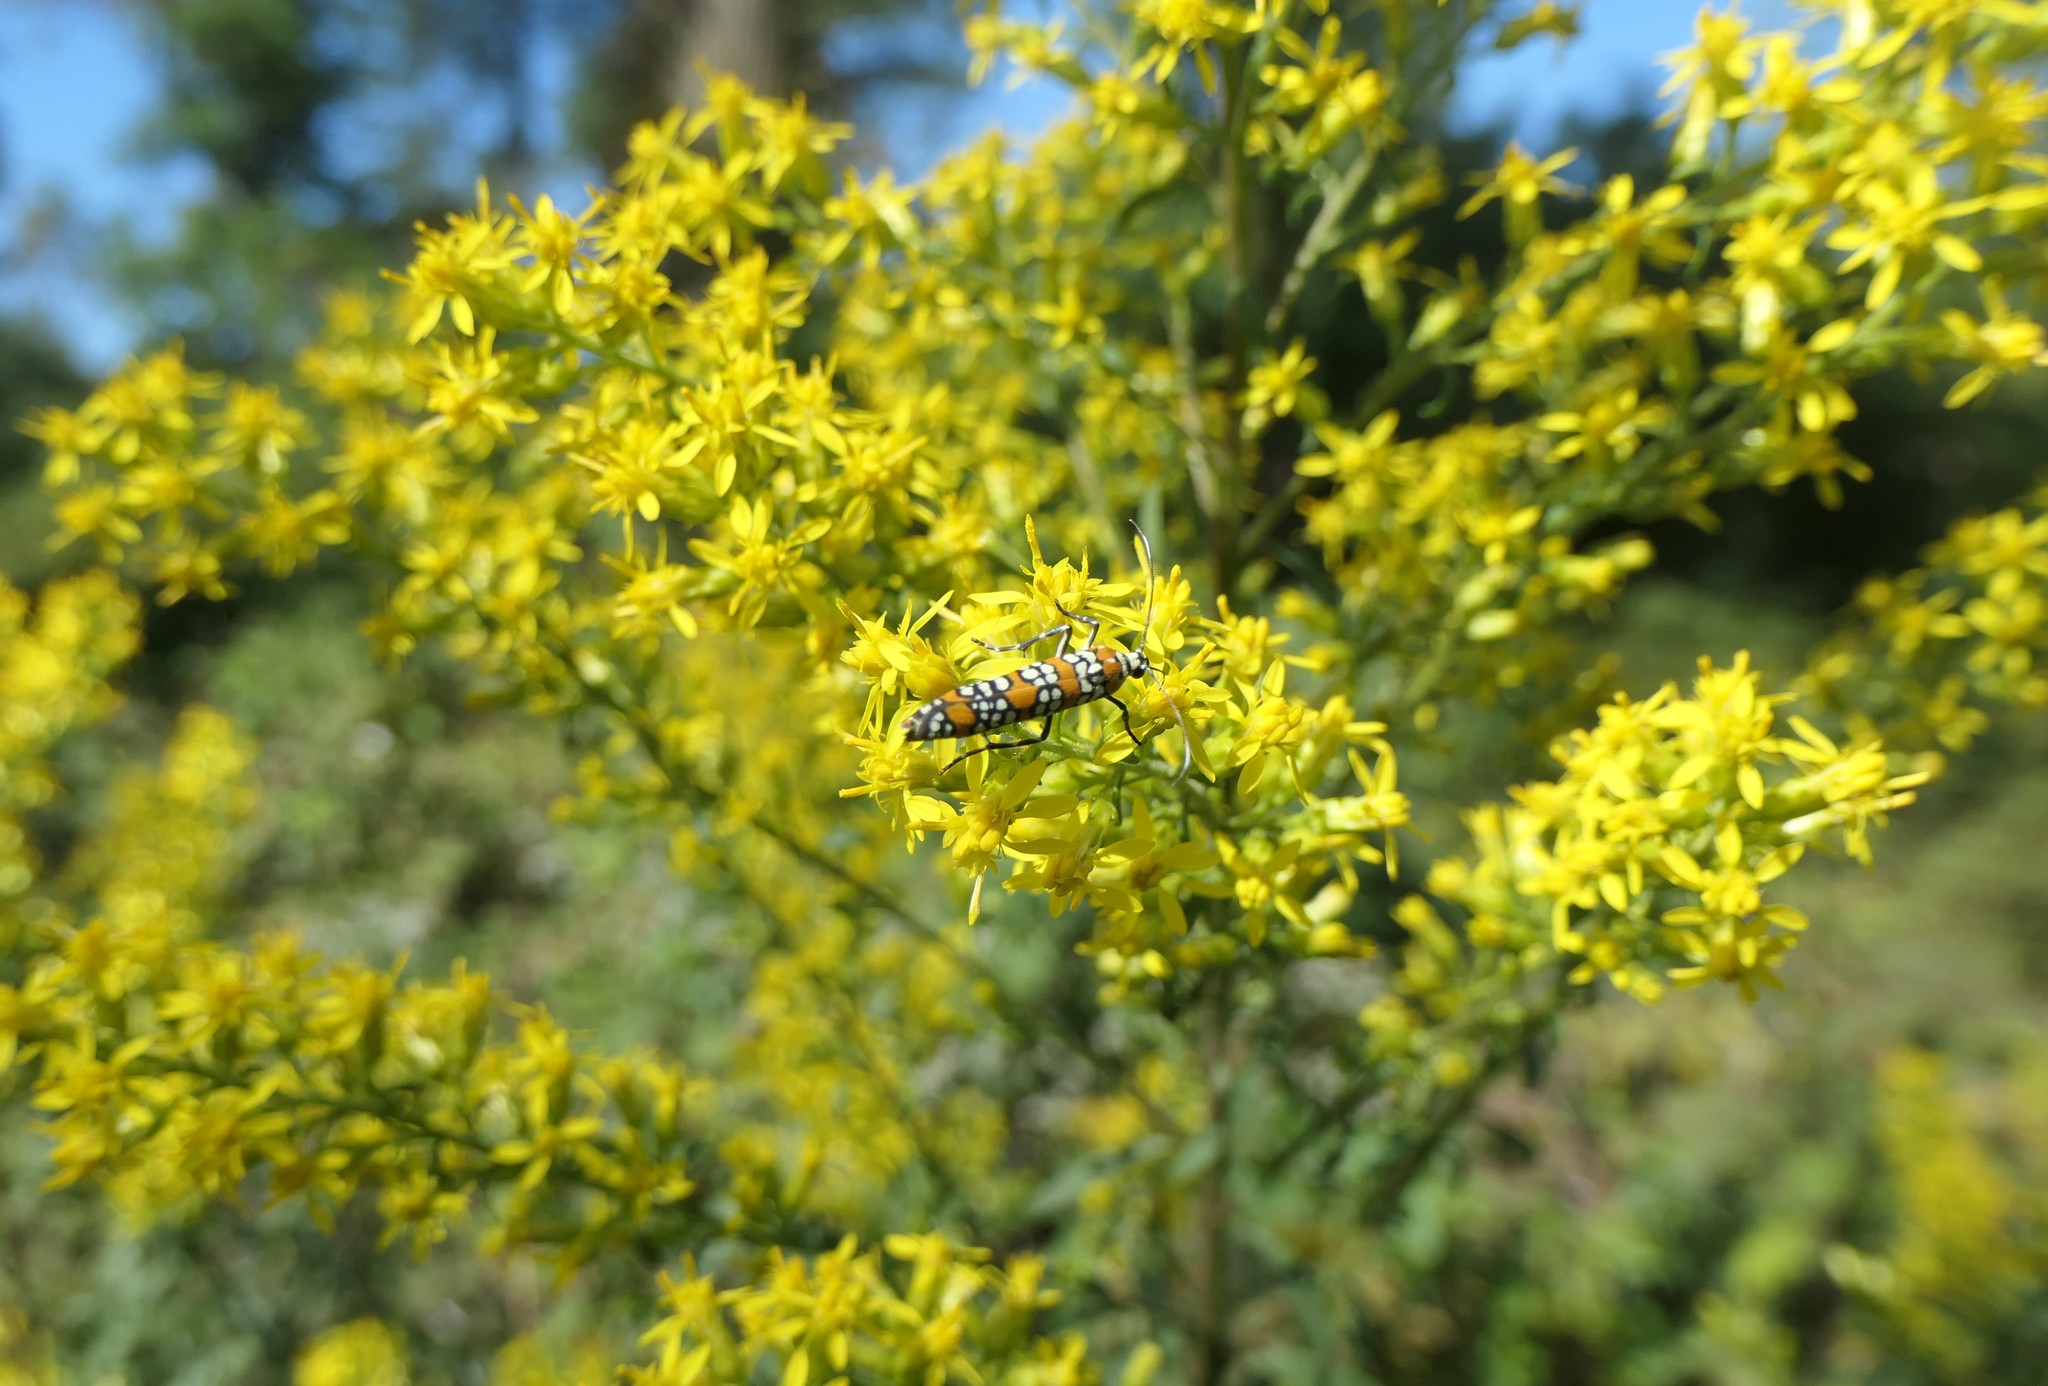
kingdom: Animalia
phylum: Arthropoda
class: Insecta
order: Lepidoptera
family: Attevidae
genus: Atteva
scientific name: Atteva punctella
